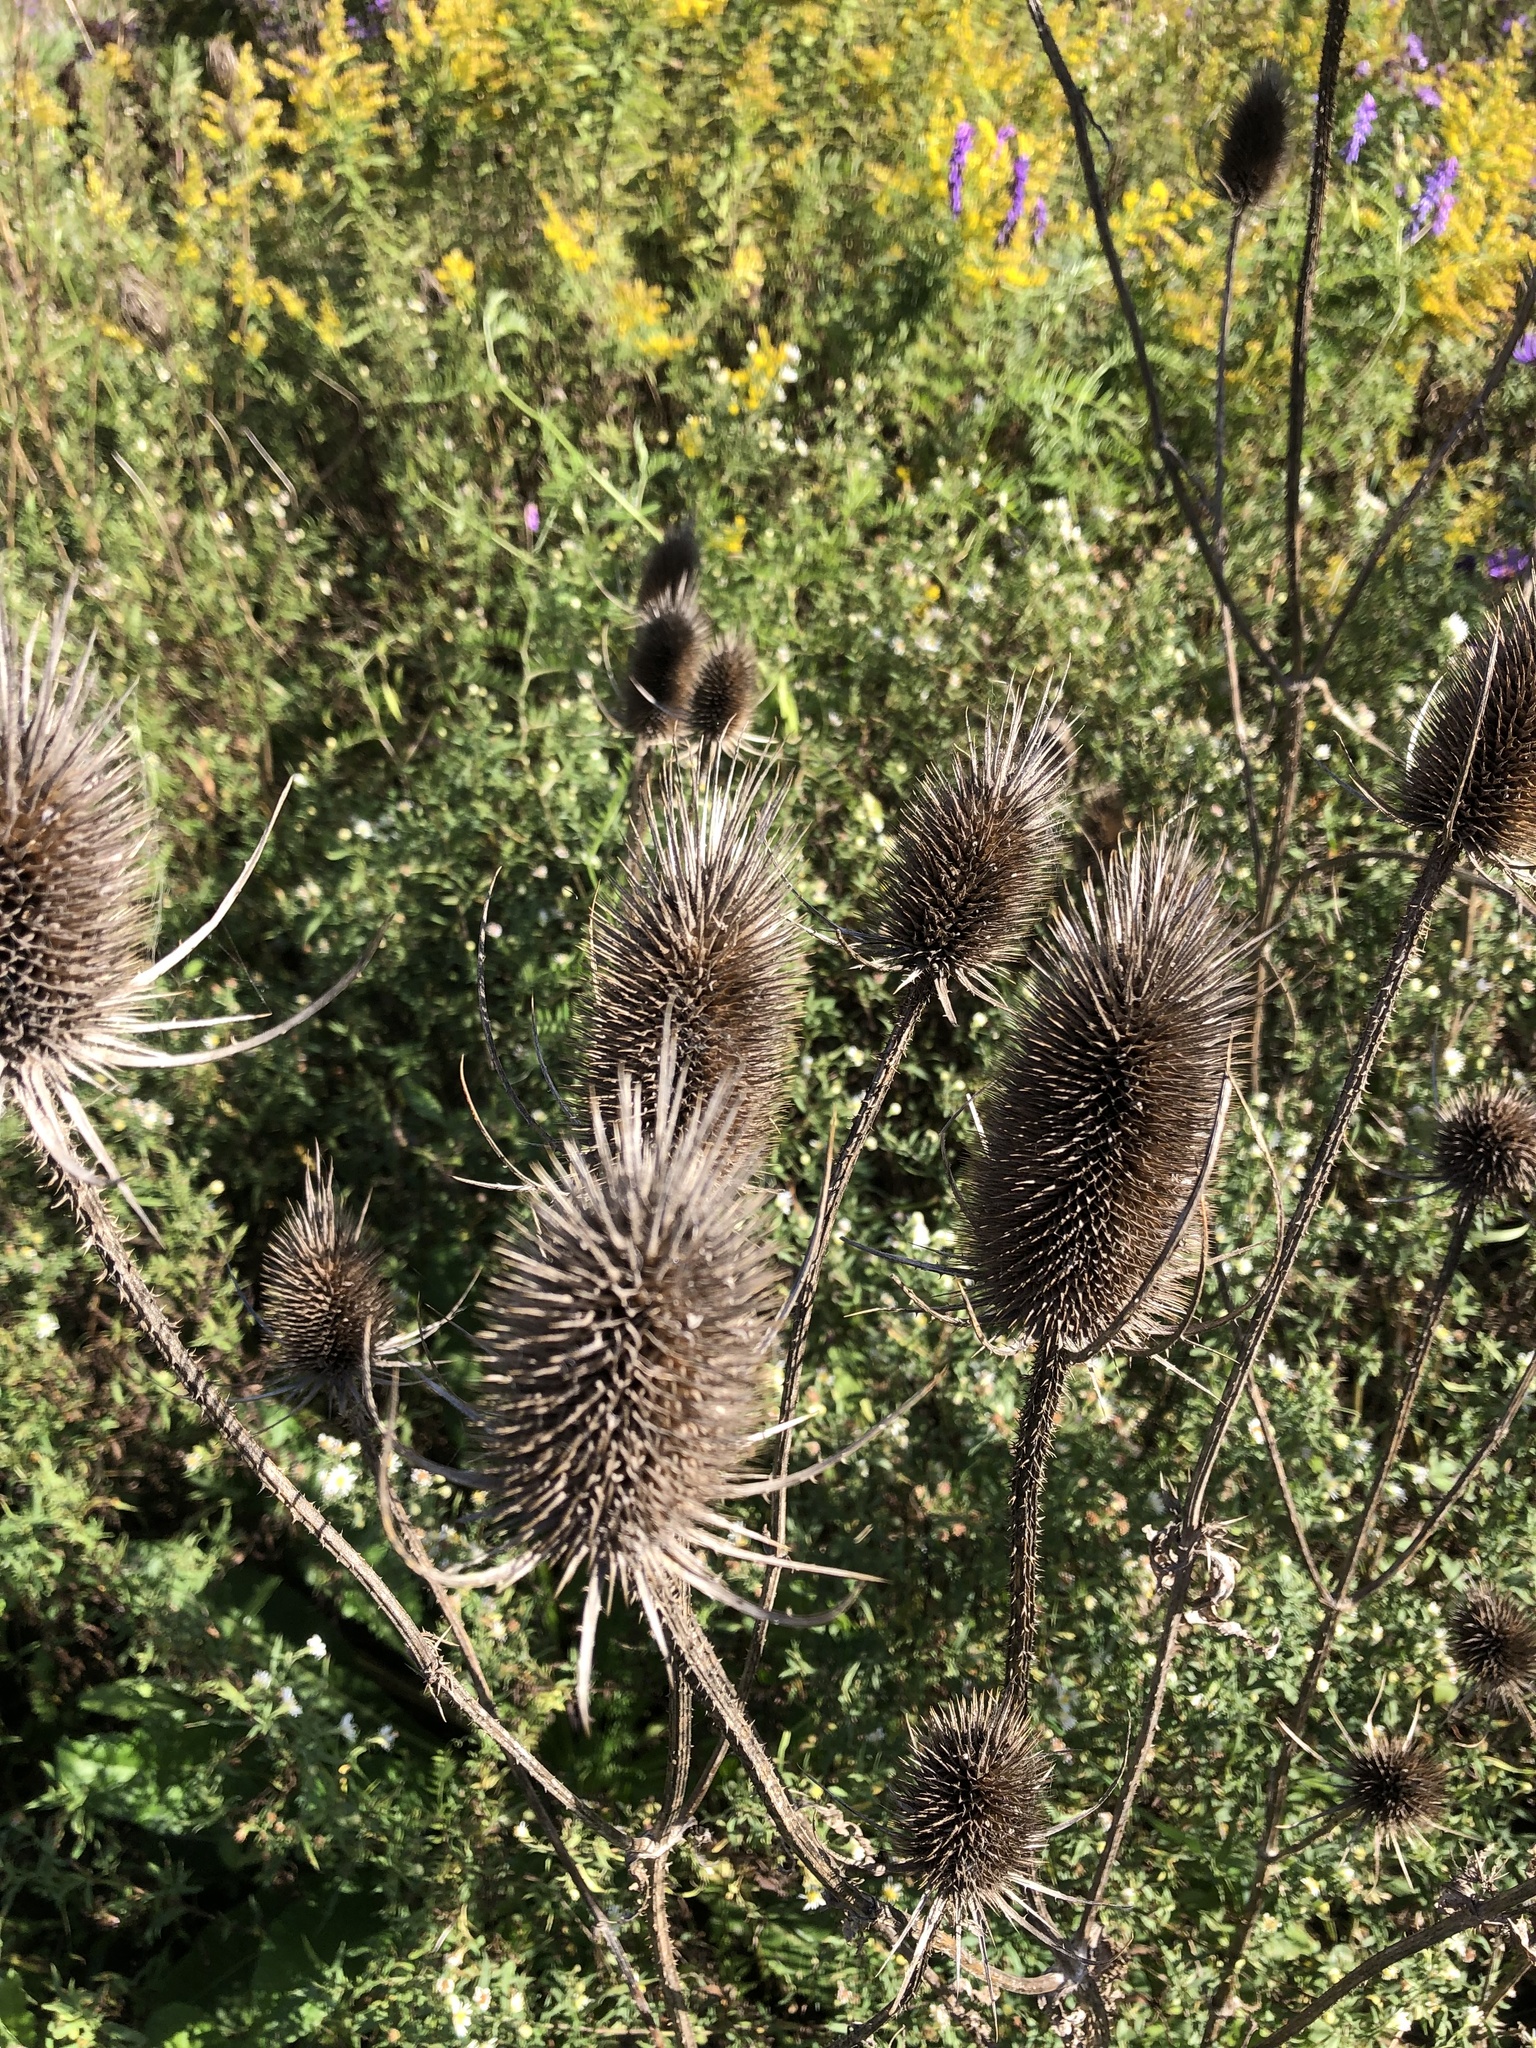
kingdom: Plantae
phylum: Tracheophyta
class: Magnoliopsida
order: Dipsacales
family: Caprifoliaceae
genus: Dipsacus
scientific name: Dipsacus fullonum
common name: Teasel
